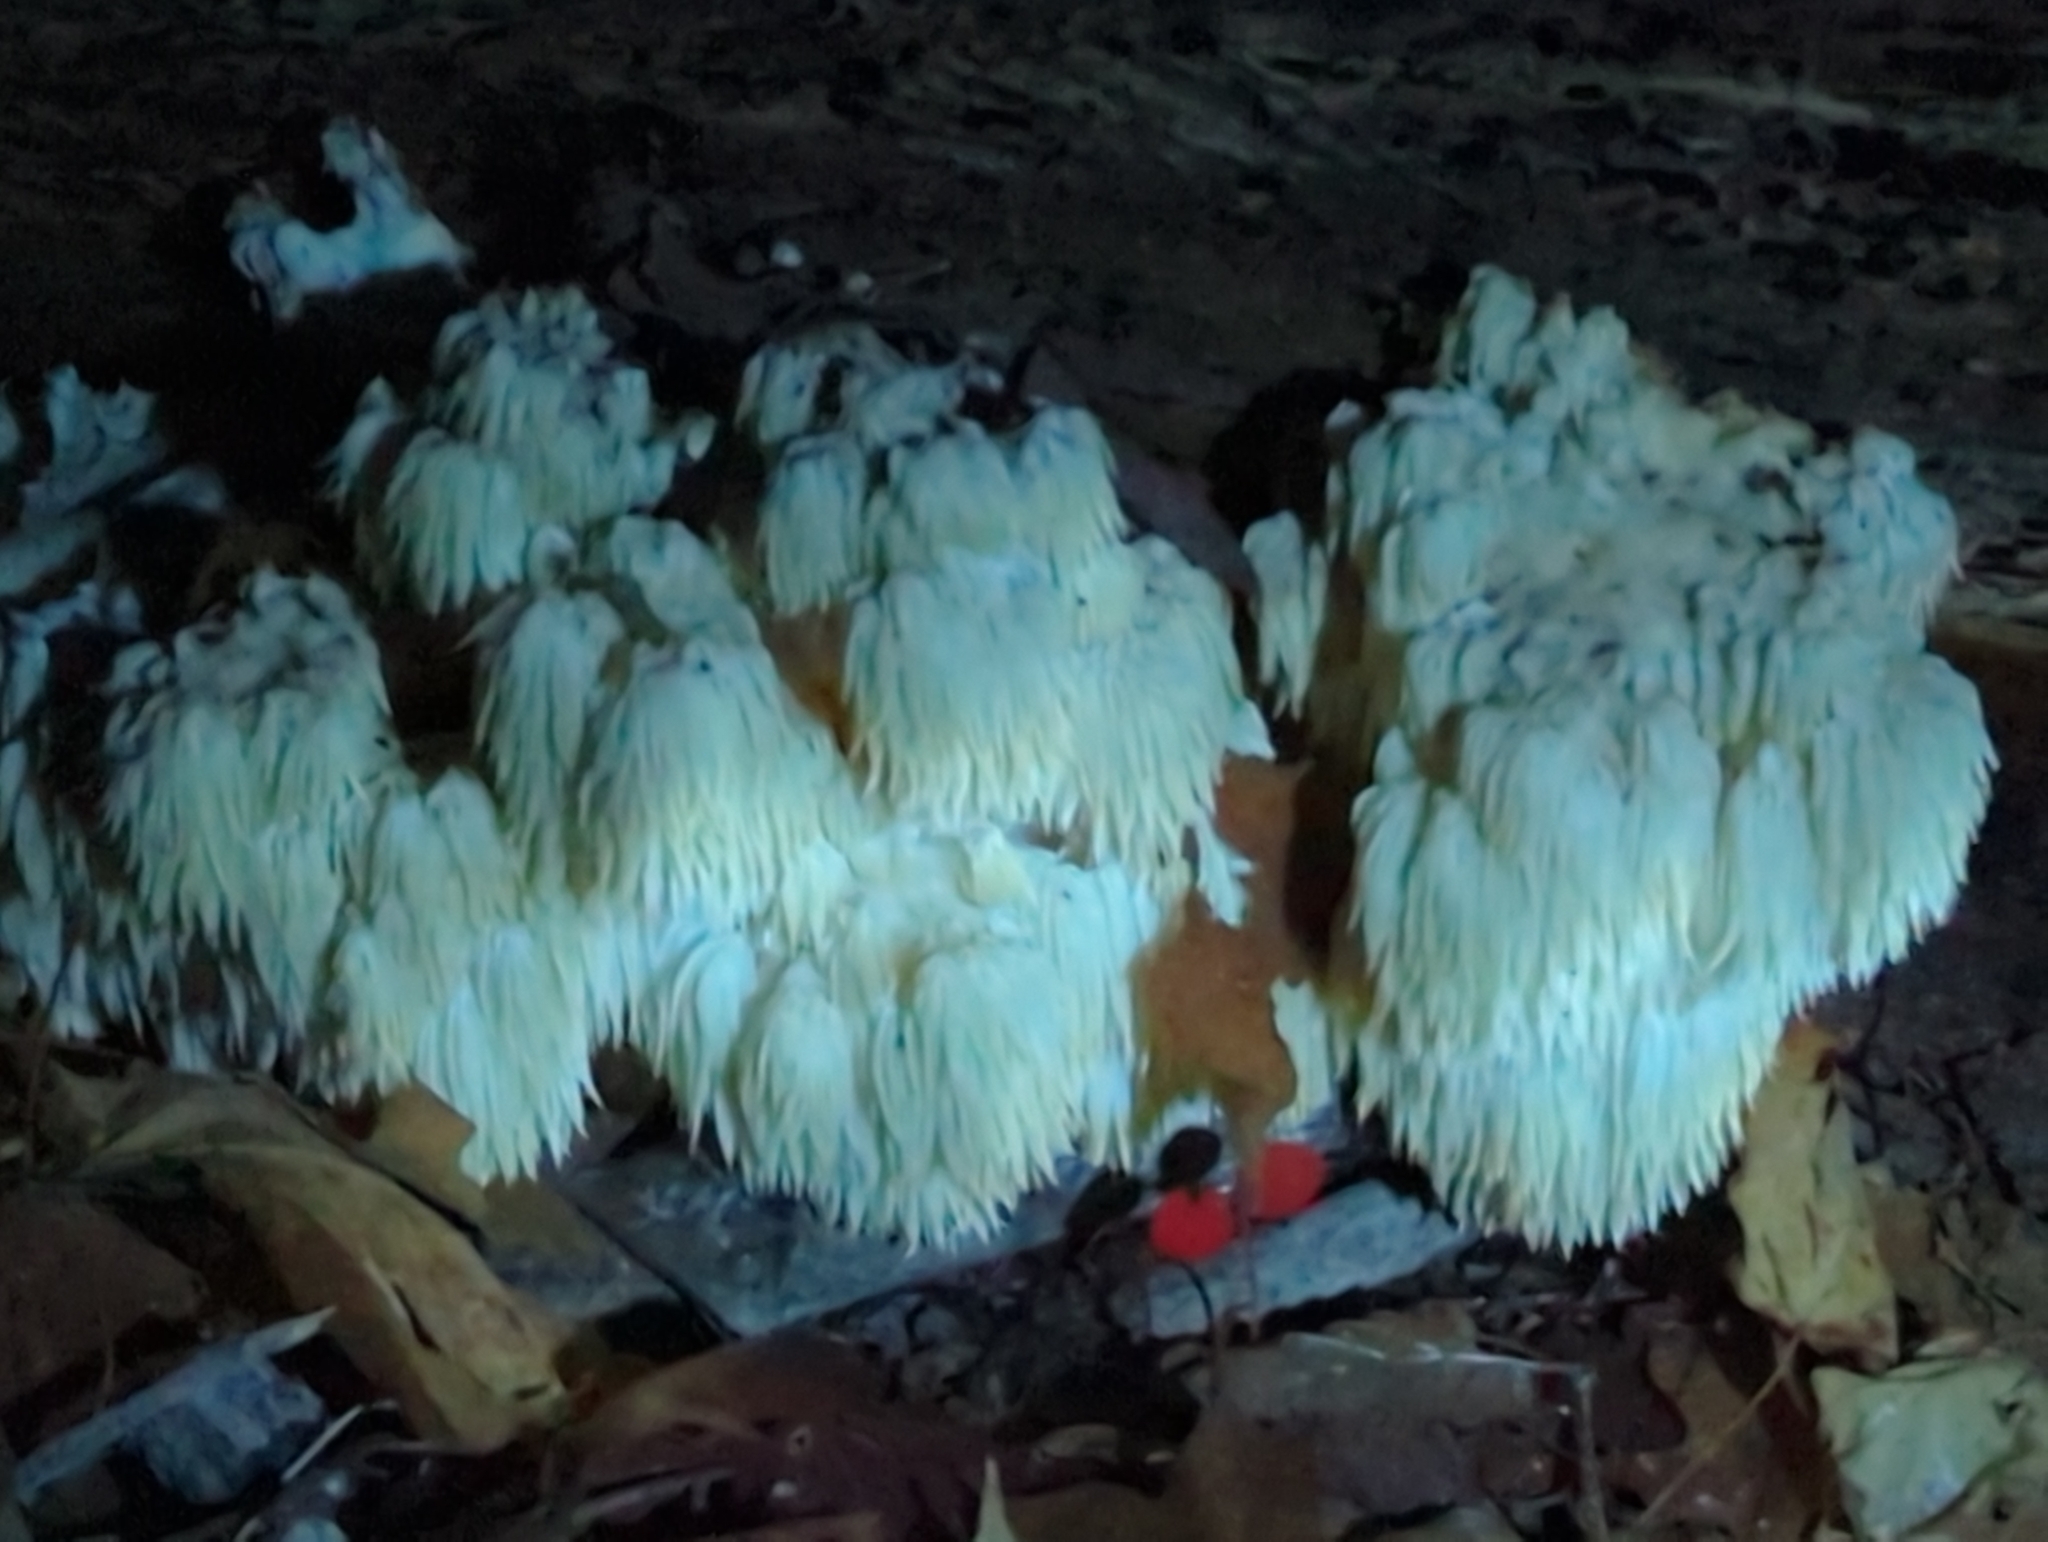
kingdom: Fungi
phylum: Basidiomycota
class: Agaricomycetes
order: Russulales
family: Hericiaceae
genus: Hericium
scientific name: Hericium americanum
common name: Bear's head tooth
